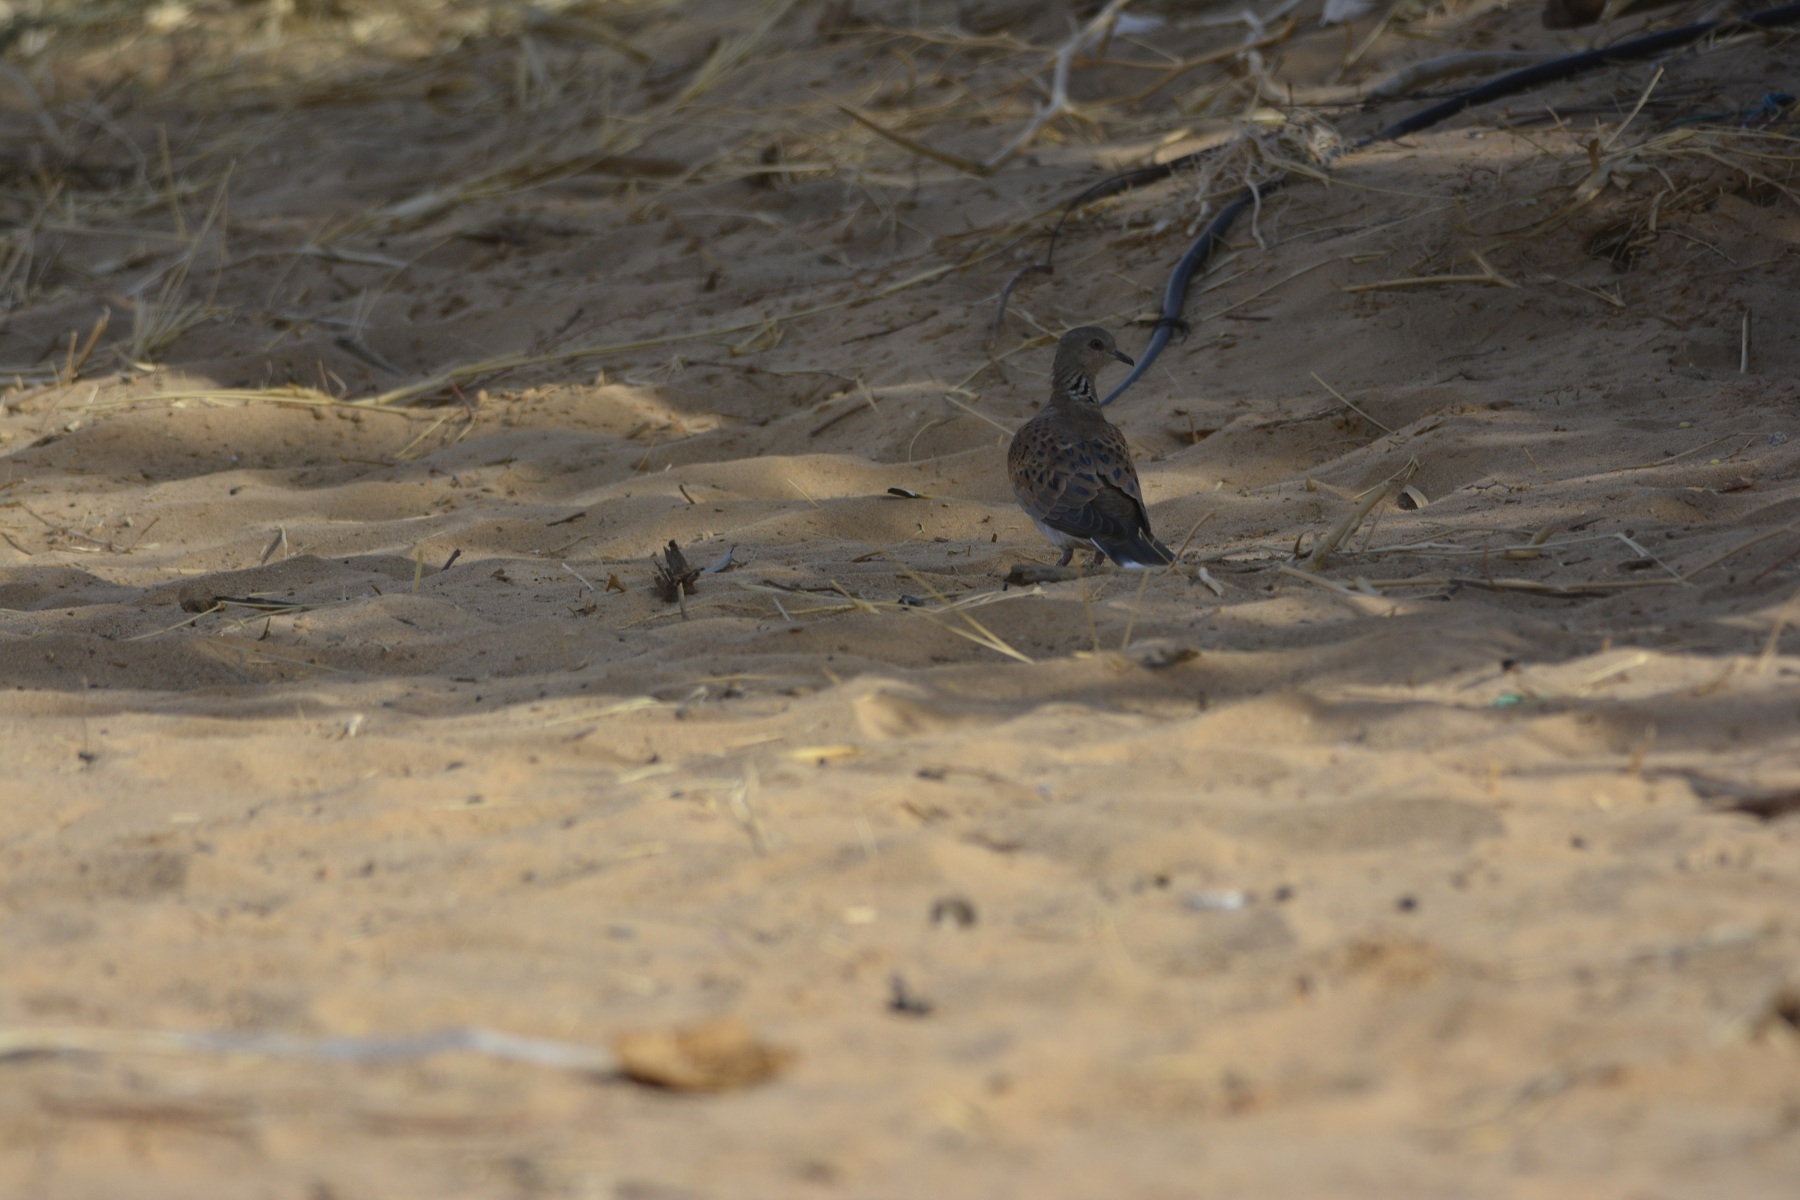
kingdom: Animalia
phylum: Chordata
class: Aves
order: Columbiformes
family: Columbidae
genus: Streptopelia
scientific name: Streptopelia turtur
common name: European turtle dove
